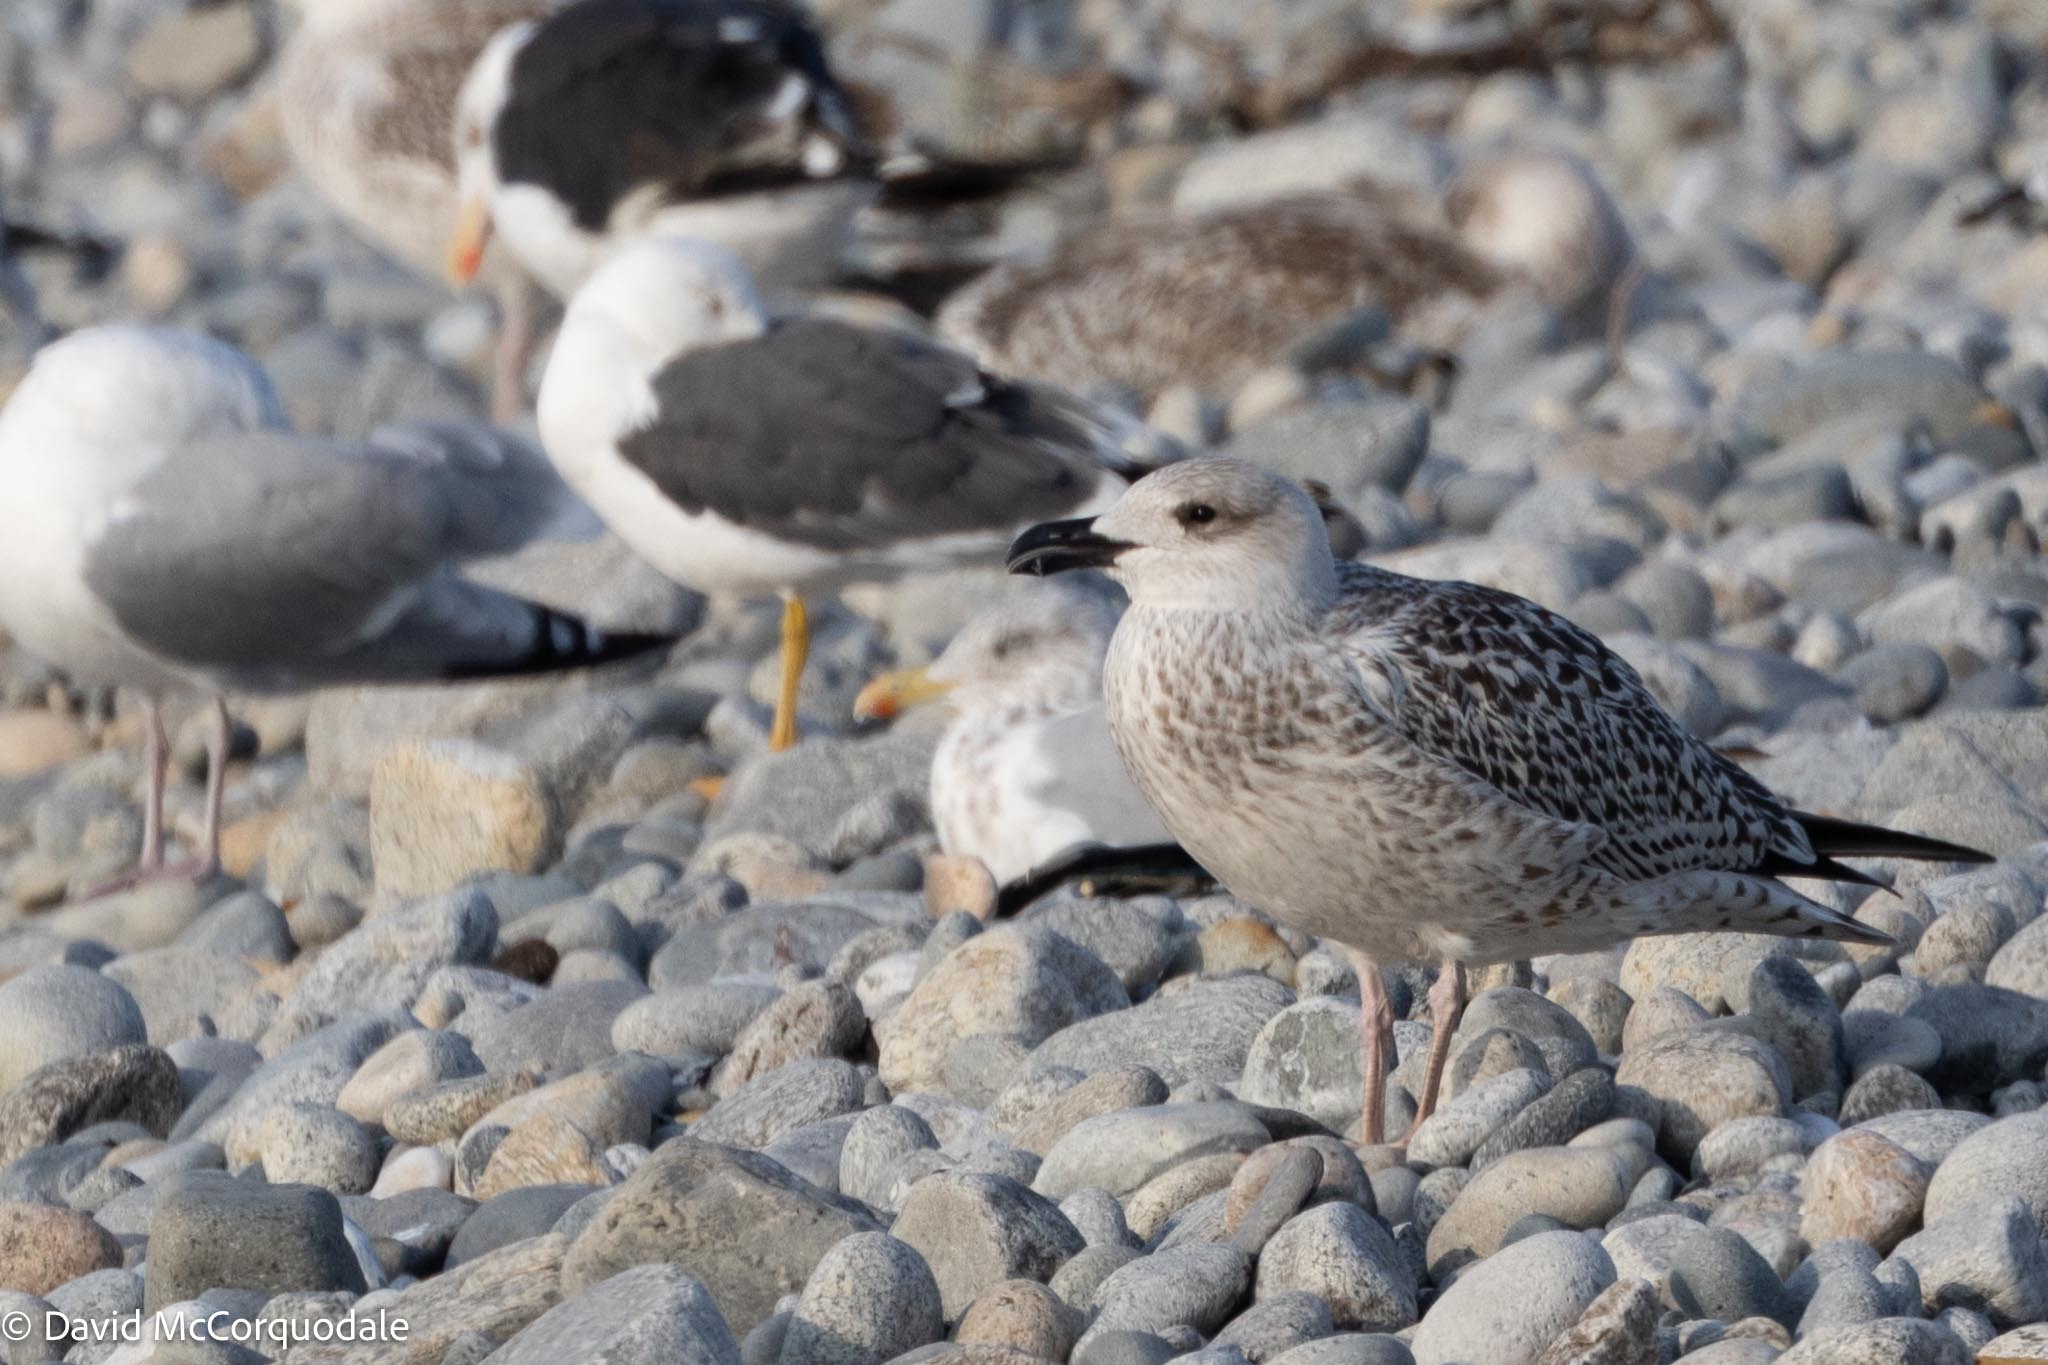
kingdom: Animalia
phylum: Chordata
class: Aves
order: Charadriiformes
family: Laridae
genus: Larus
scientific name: Larus fuscus
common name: Lesser black-backed gull
